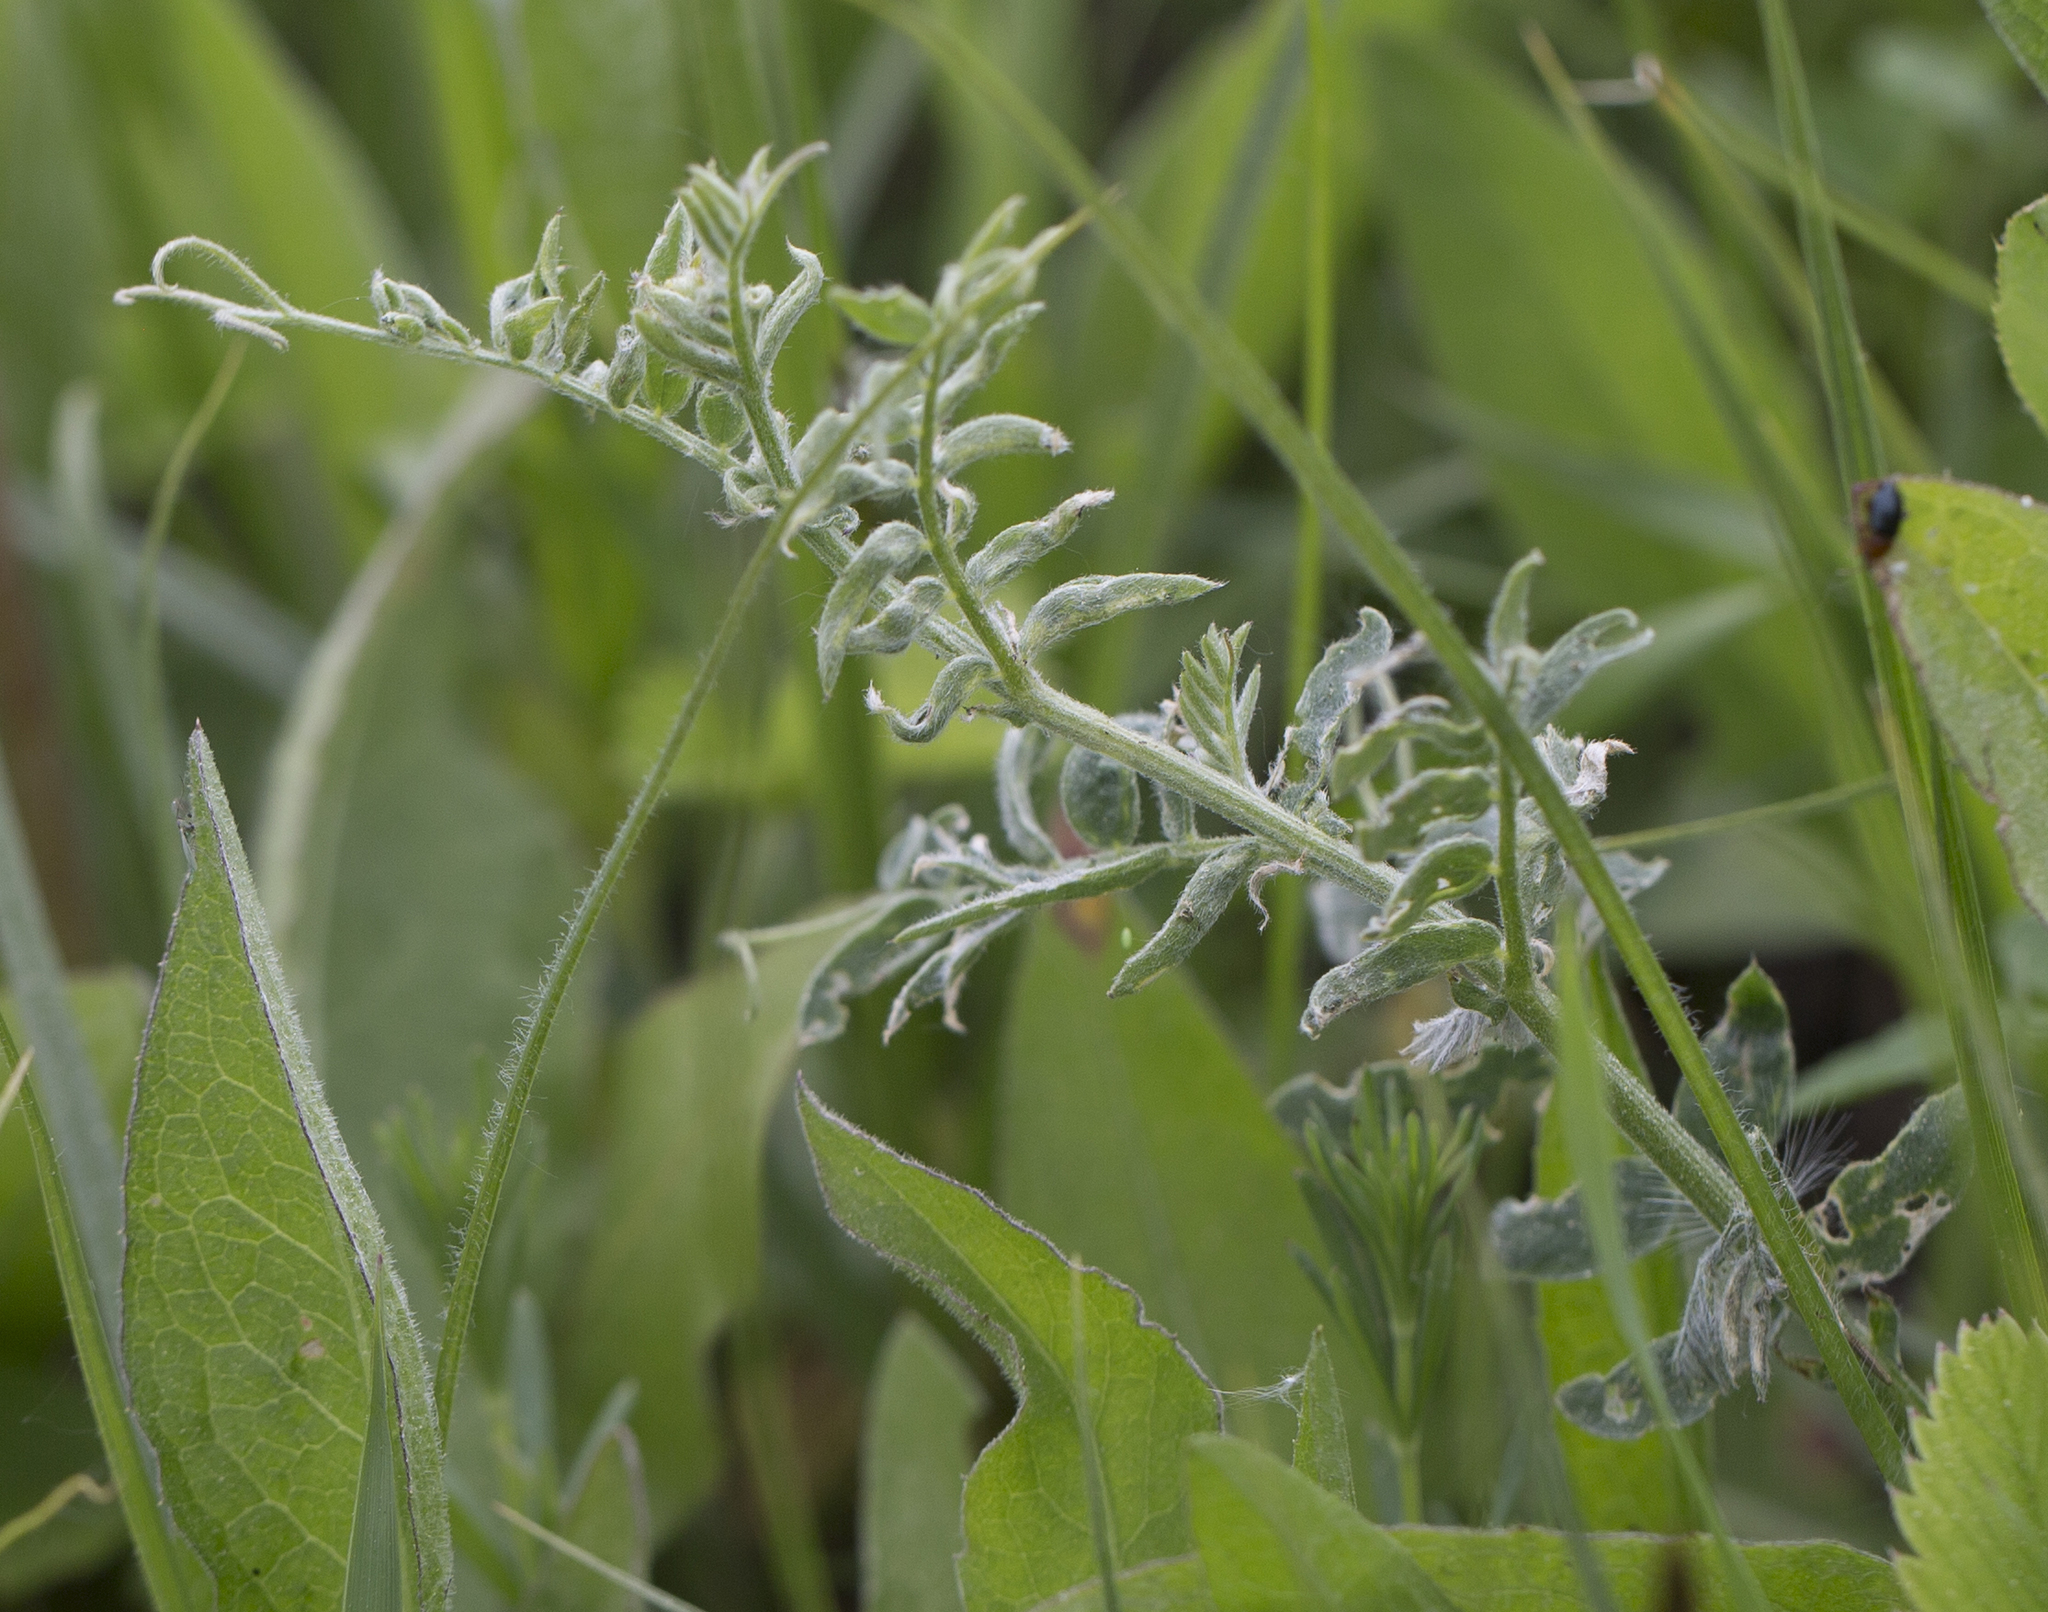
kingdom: Plantae
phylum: Tracheophyta
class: Magnoliopsida
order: Fabales
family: Fabaceae
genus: Vicia
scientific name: Vicia cracca
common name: Bird vetch
